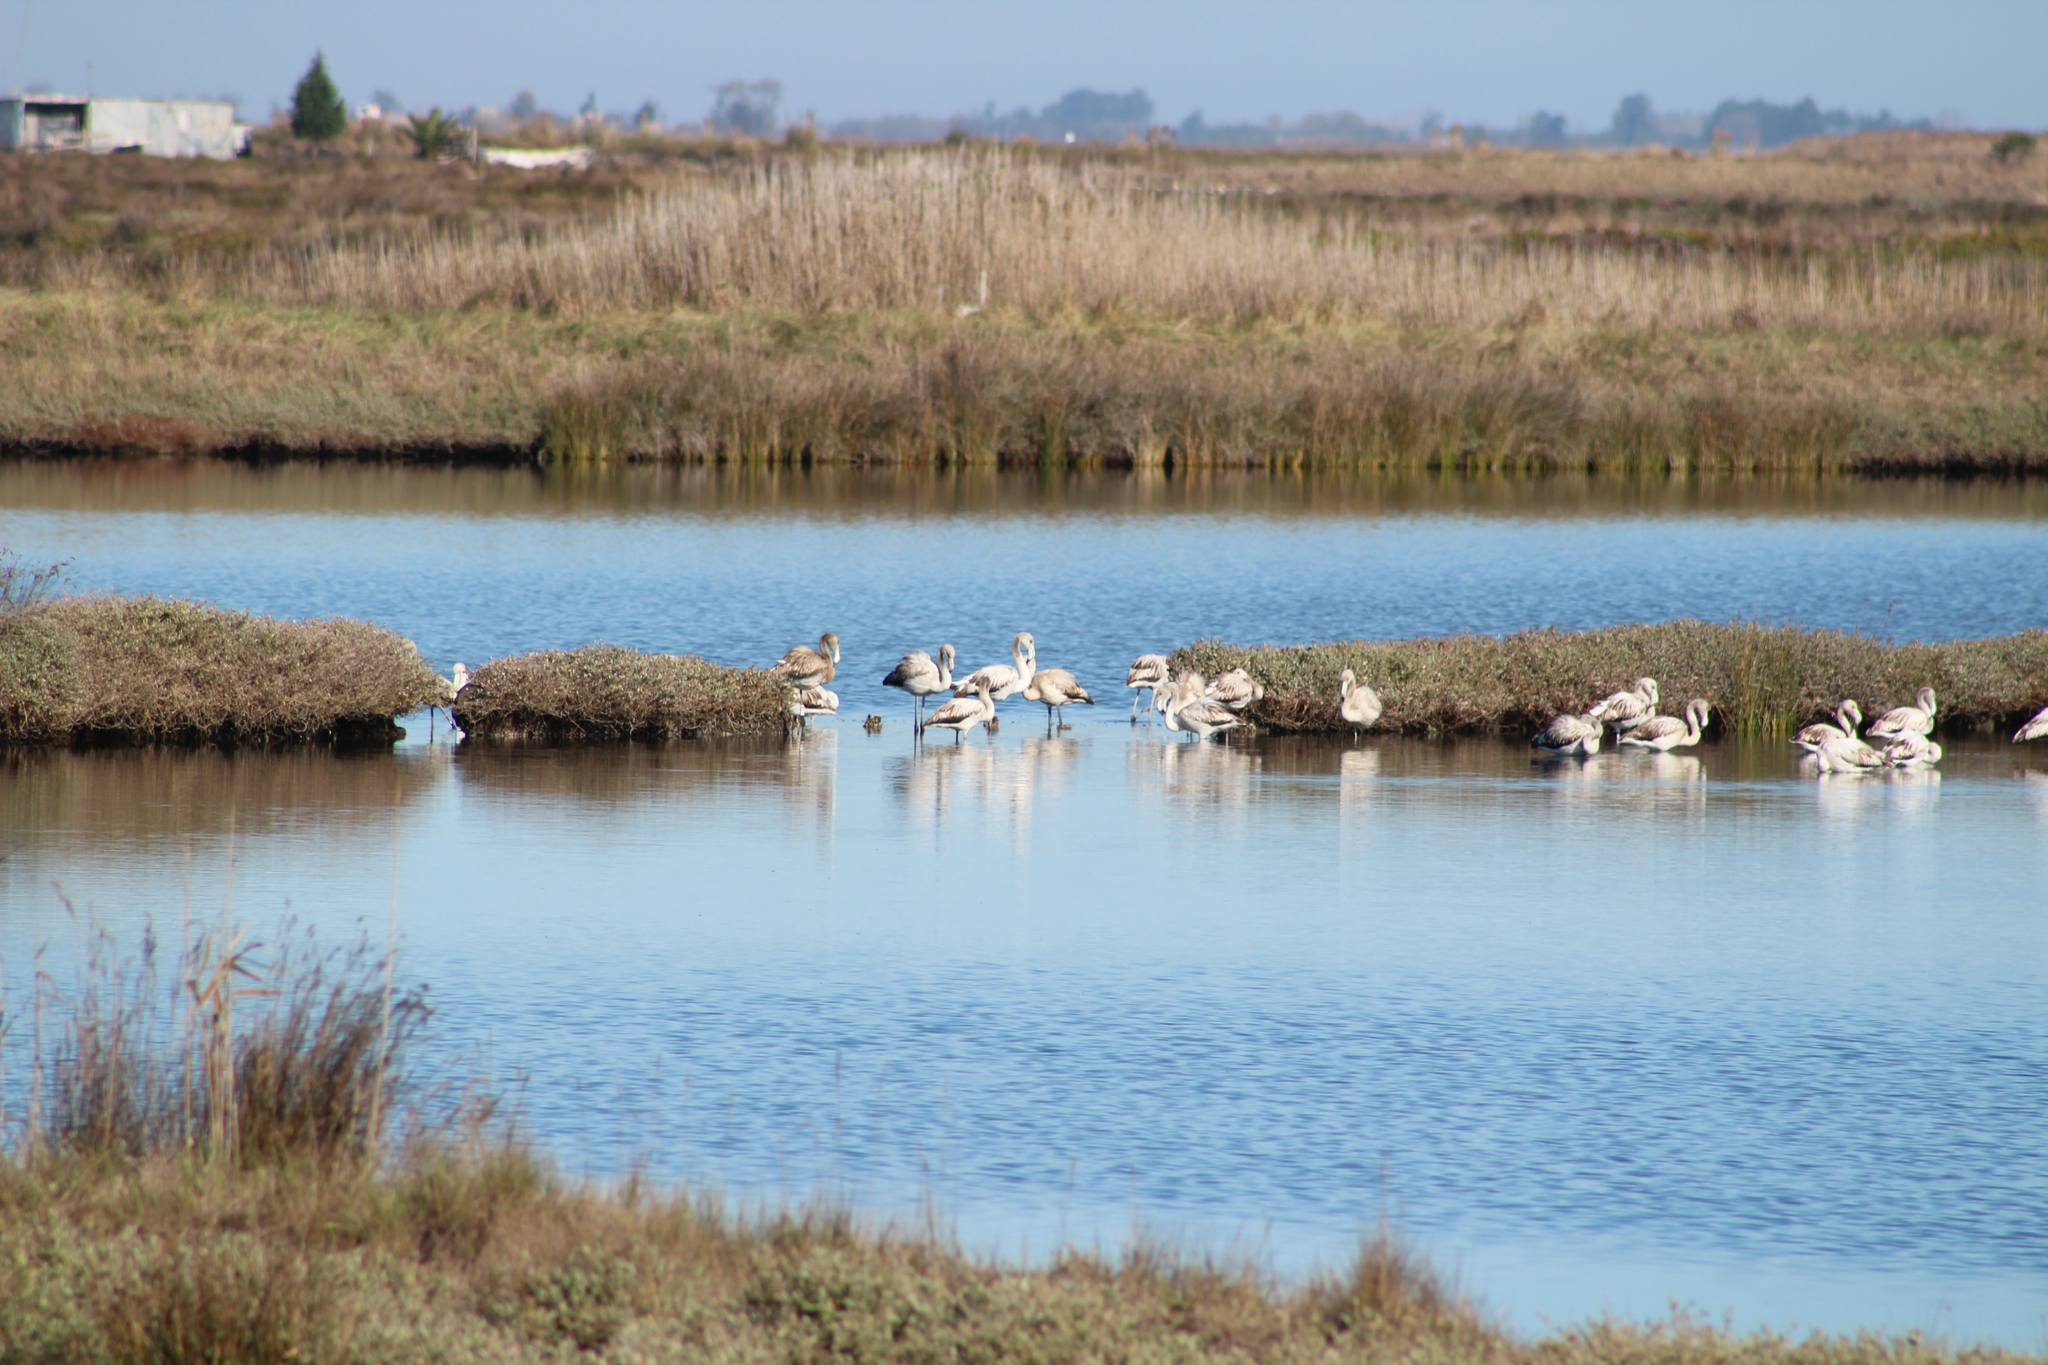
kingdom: Animalia
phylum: Chordata
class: Aves
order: Phoenicopteriformes
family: Phoenicopteridae
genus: Phoenicopterus
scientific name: Phoenicopterus roseus
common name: Greater flamingo
